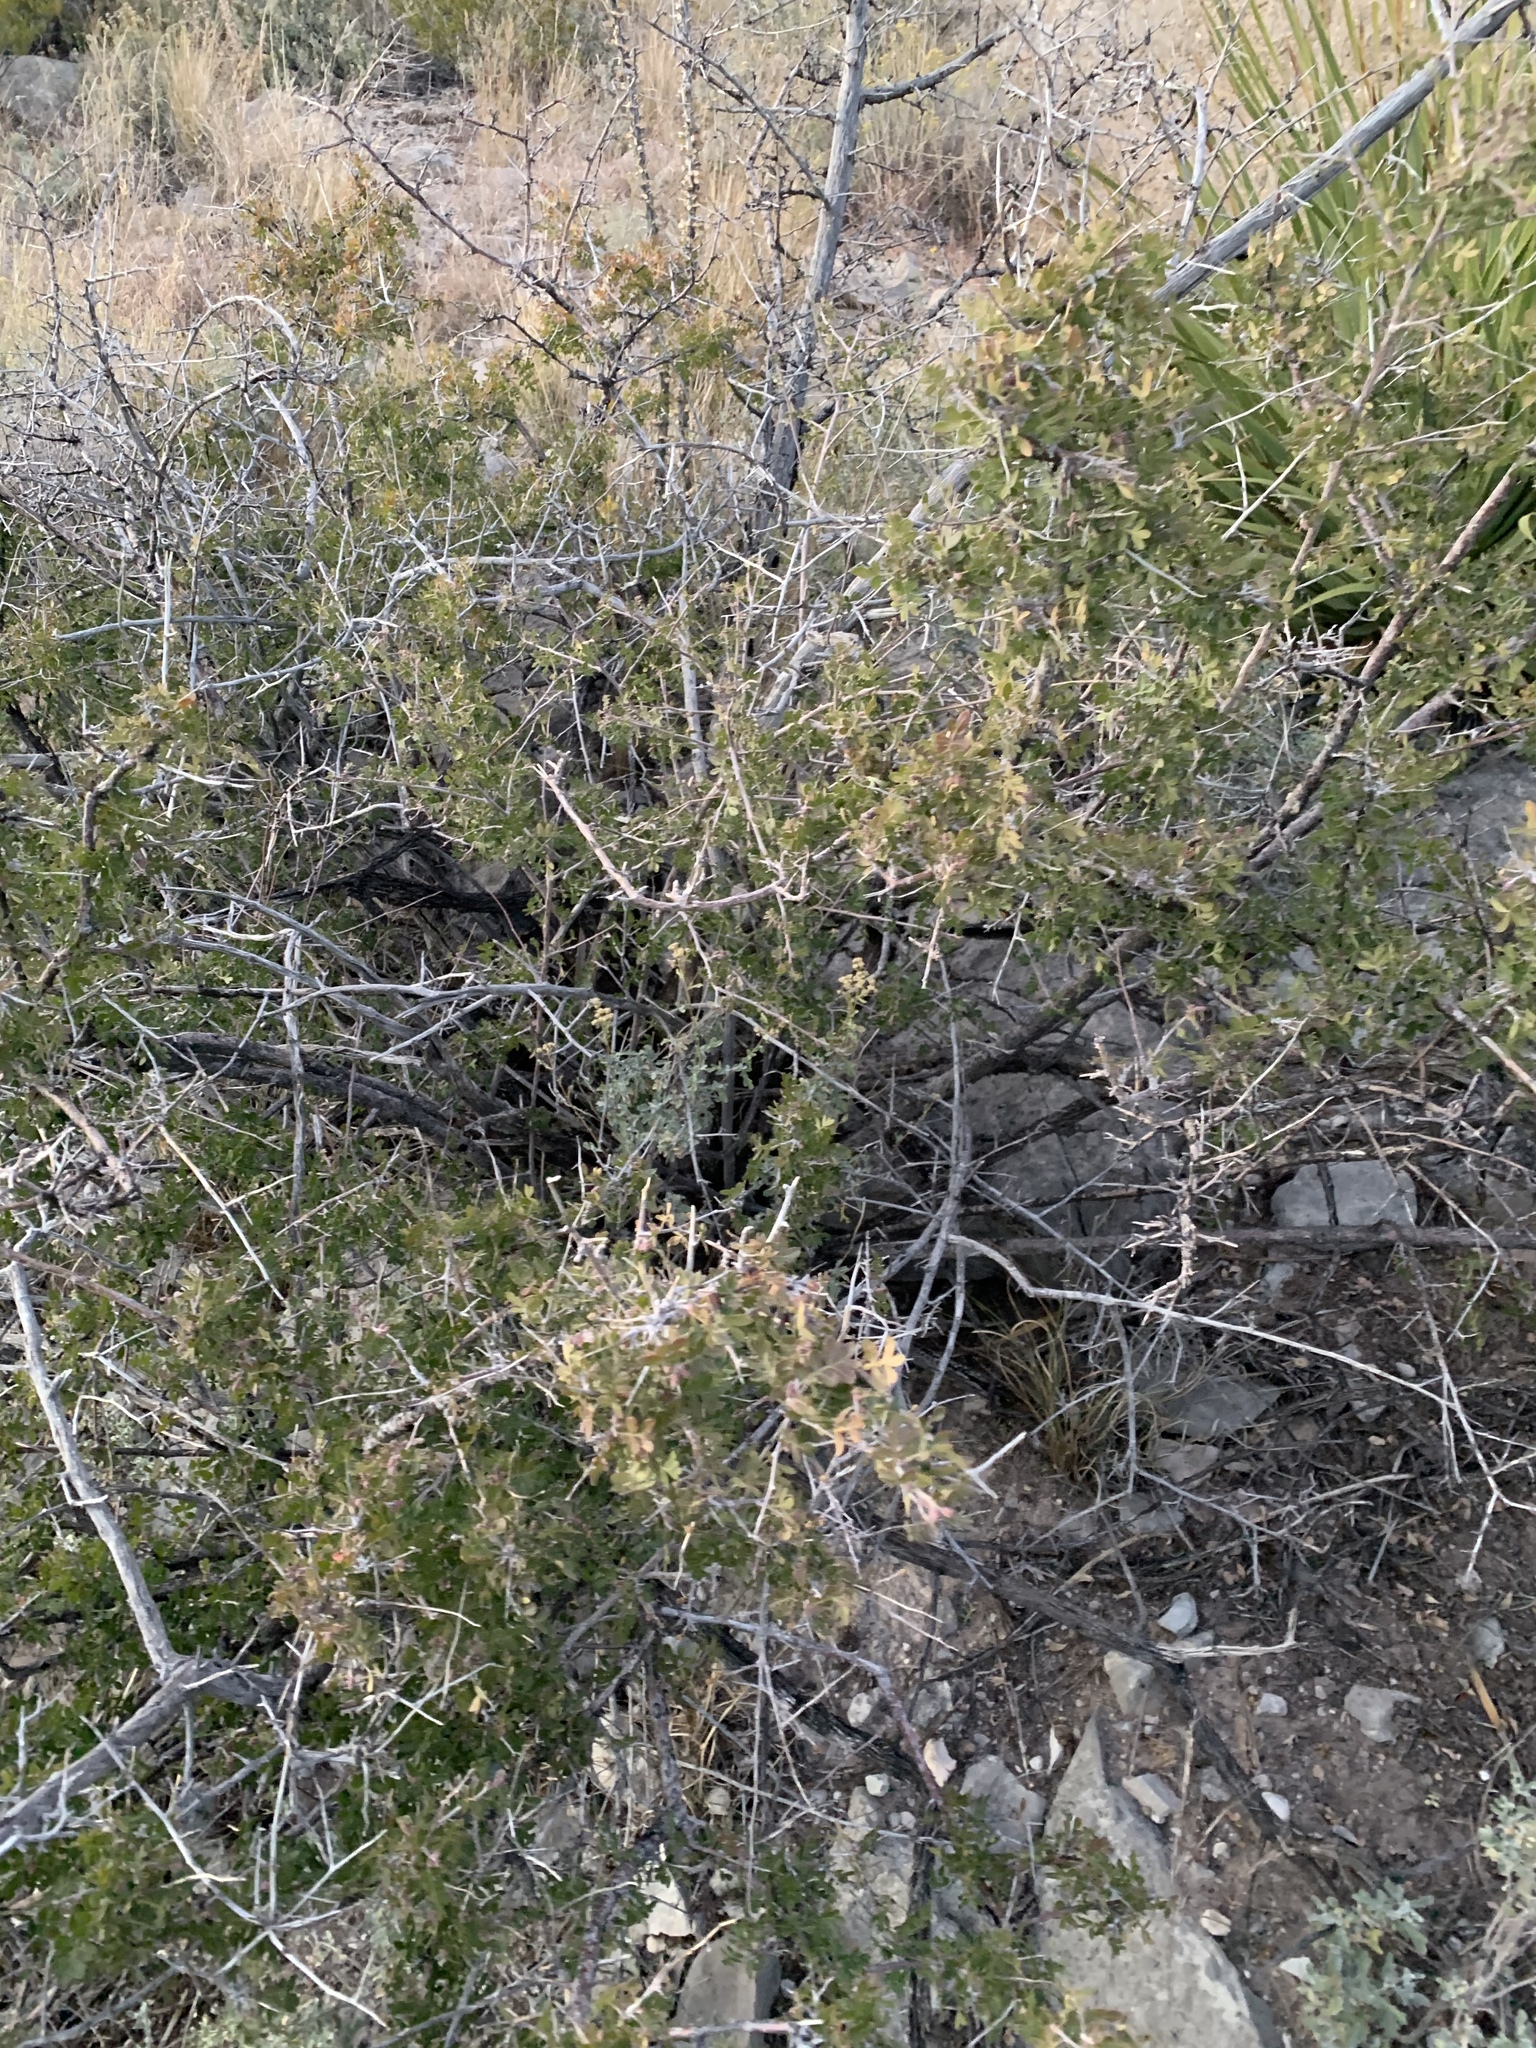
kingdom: Plantae
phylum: Tracheophyta
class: Magnoliopsida
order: Sapindales
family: Anacardiaceae
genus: Rhus
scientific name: Rhus microphylla
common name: Desert sumac
